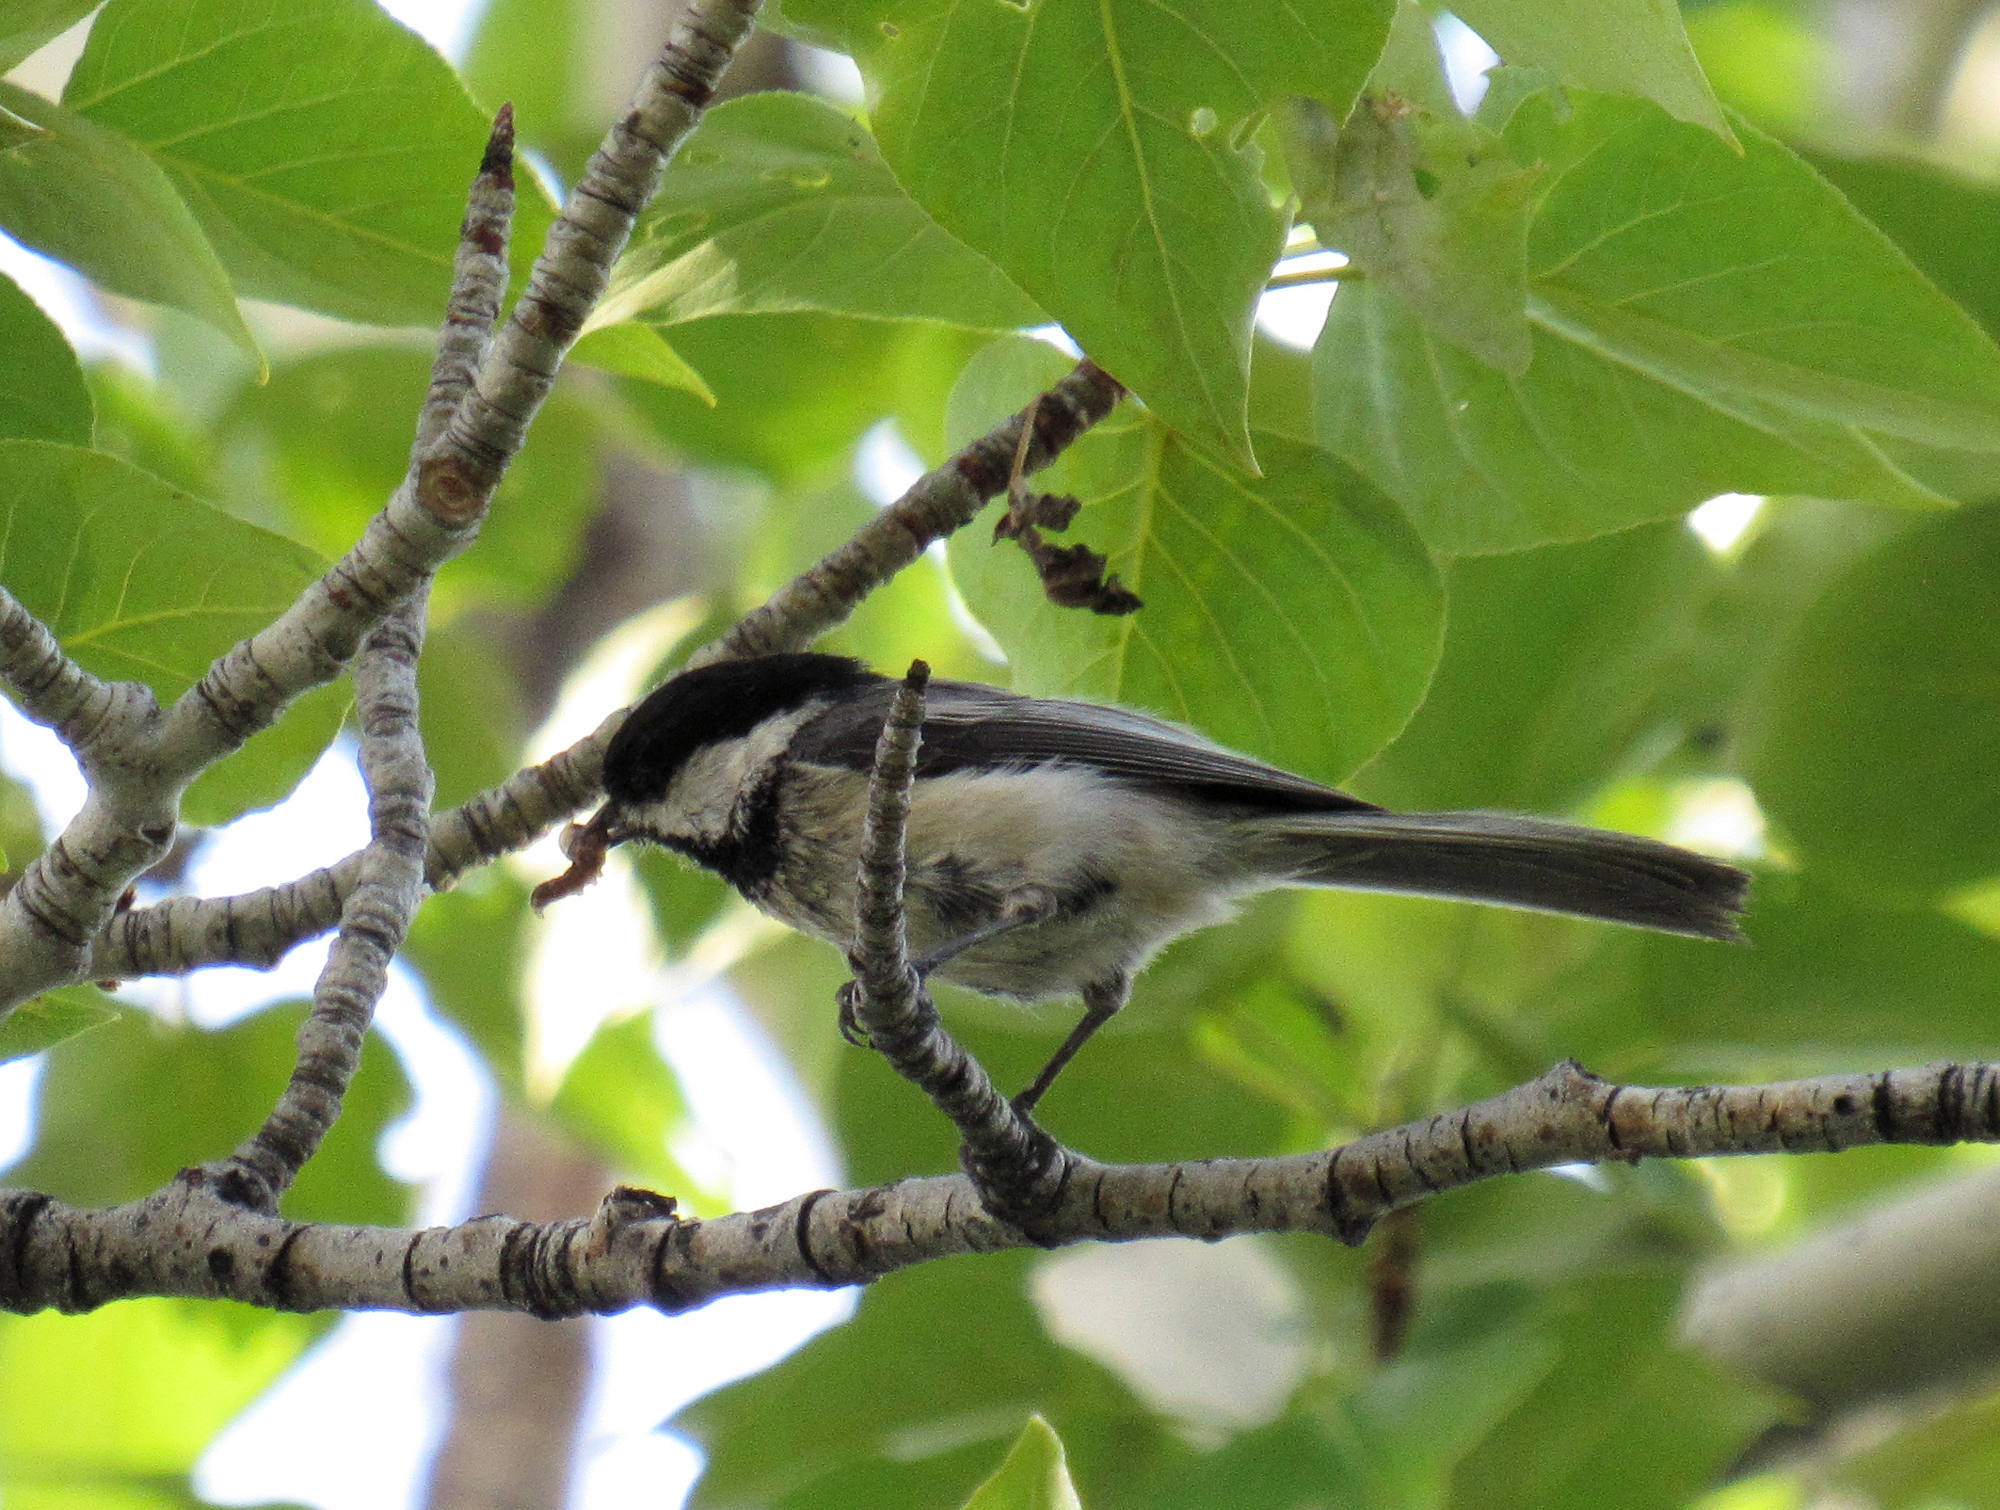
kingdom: Animalia
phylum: Chordata
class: Aves
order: Passeriformes
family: Paridae
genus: Poecile
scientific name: Poecile atricapillus
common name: Black-capped chickadee
